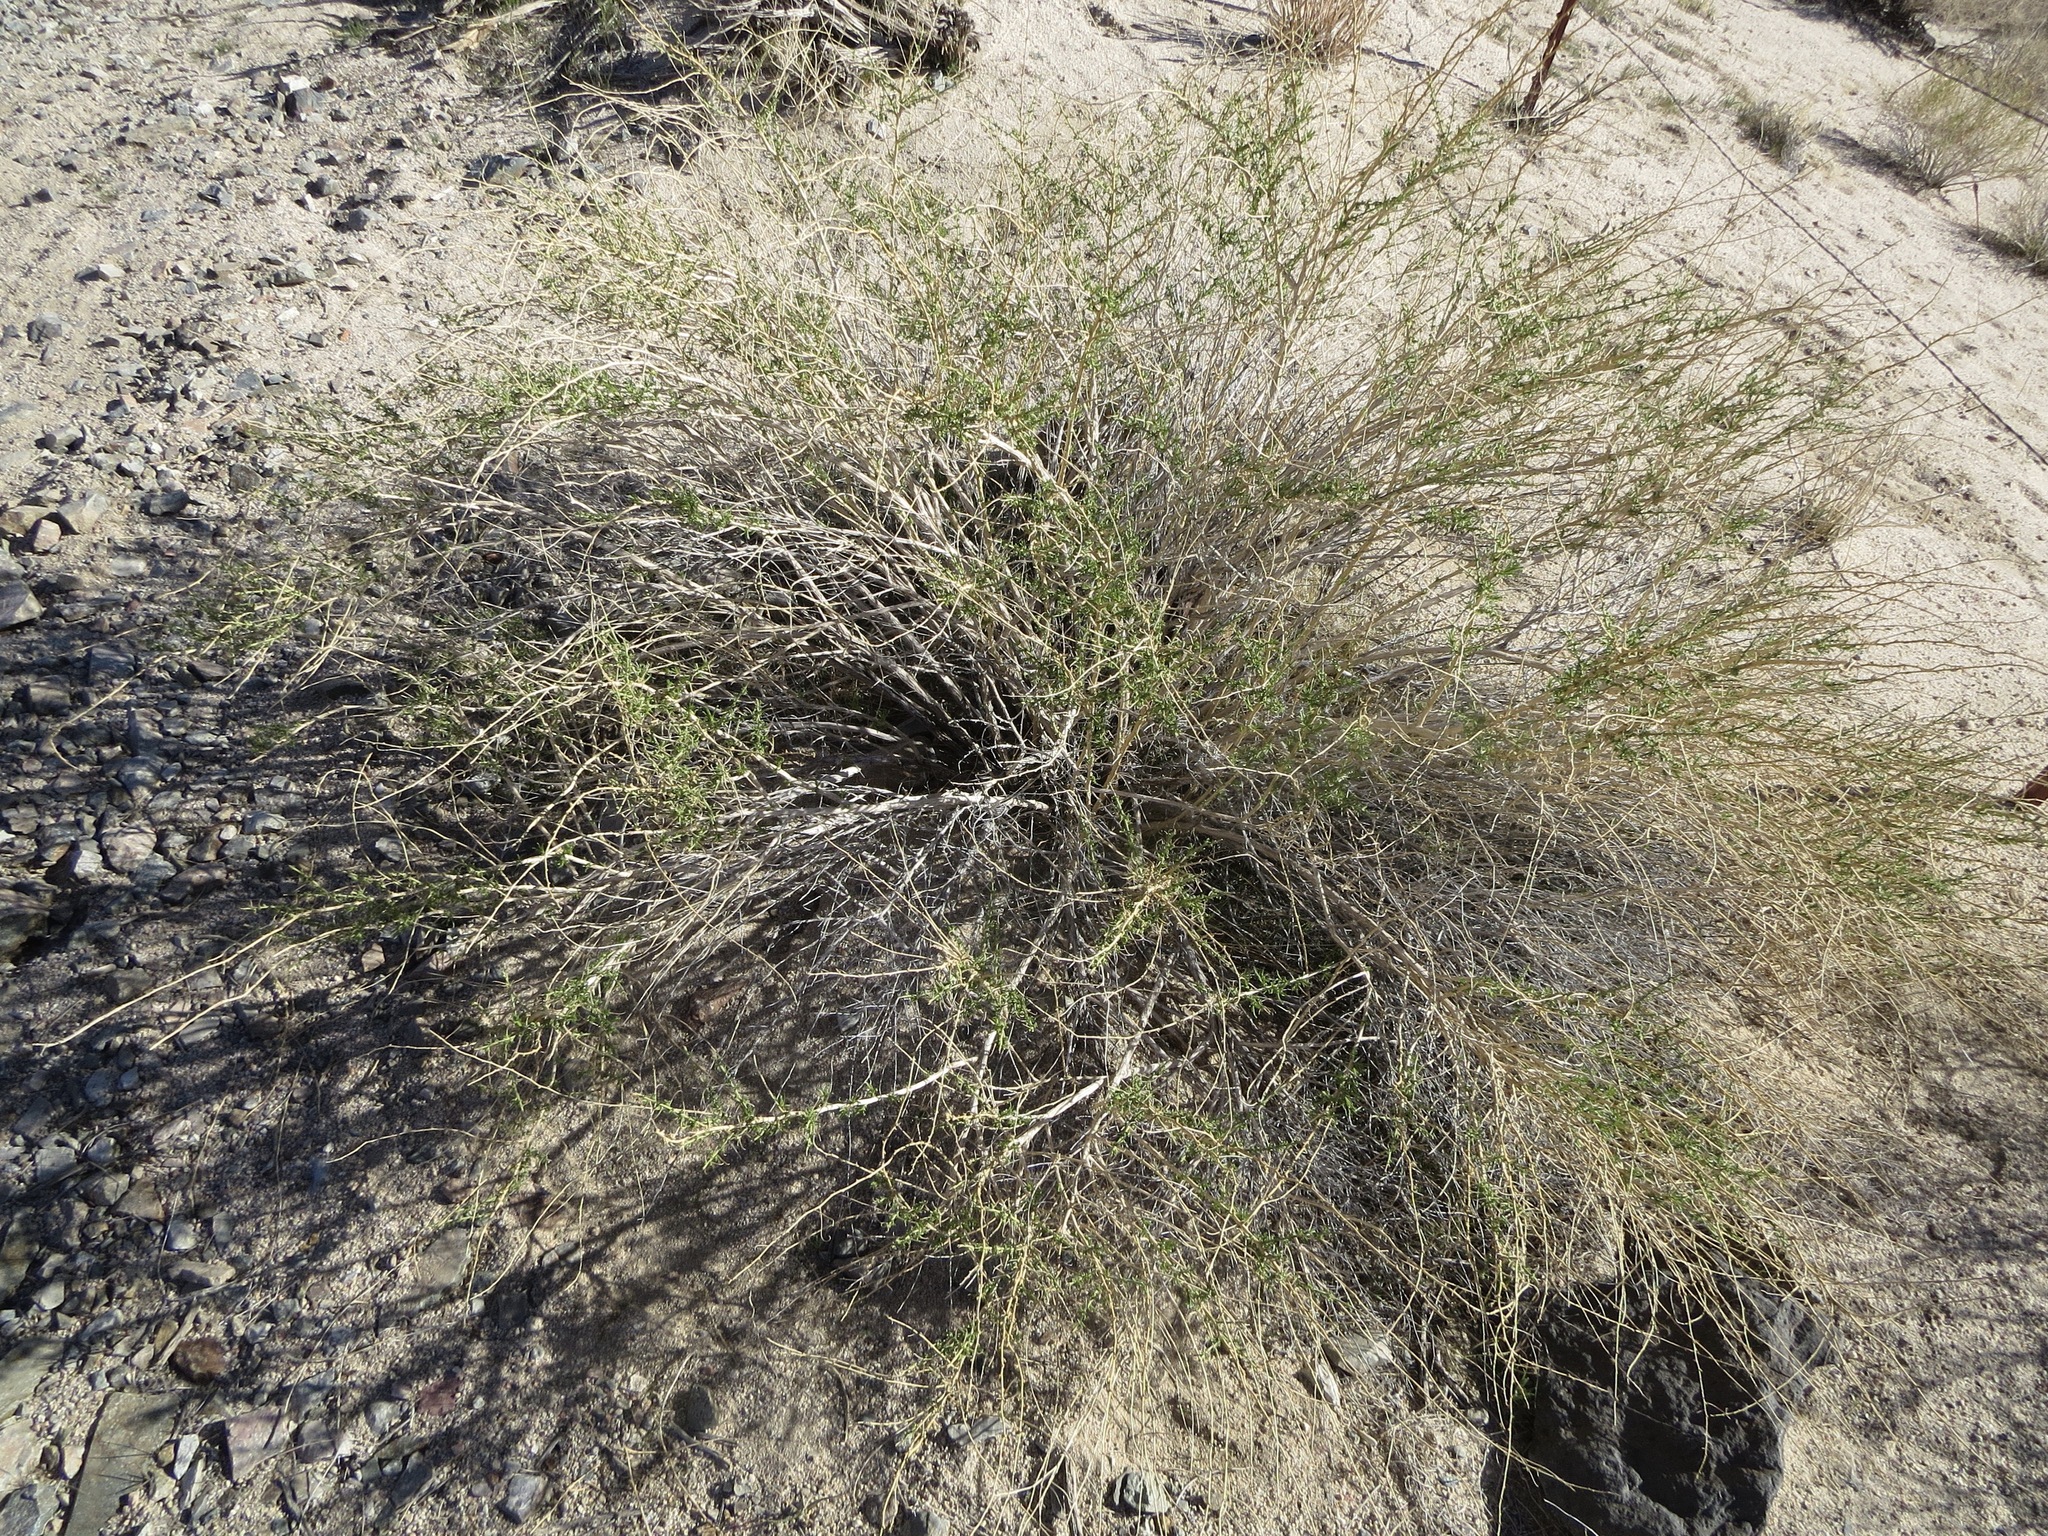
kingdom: Plantae
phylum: Tracheophyta
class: Magnoliopsida
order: Asterales
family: Asteraceae
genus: Ambrosia
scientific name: Ambrosia salsola
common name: Burrobrush
